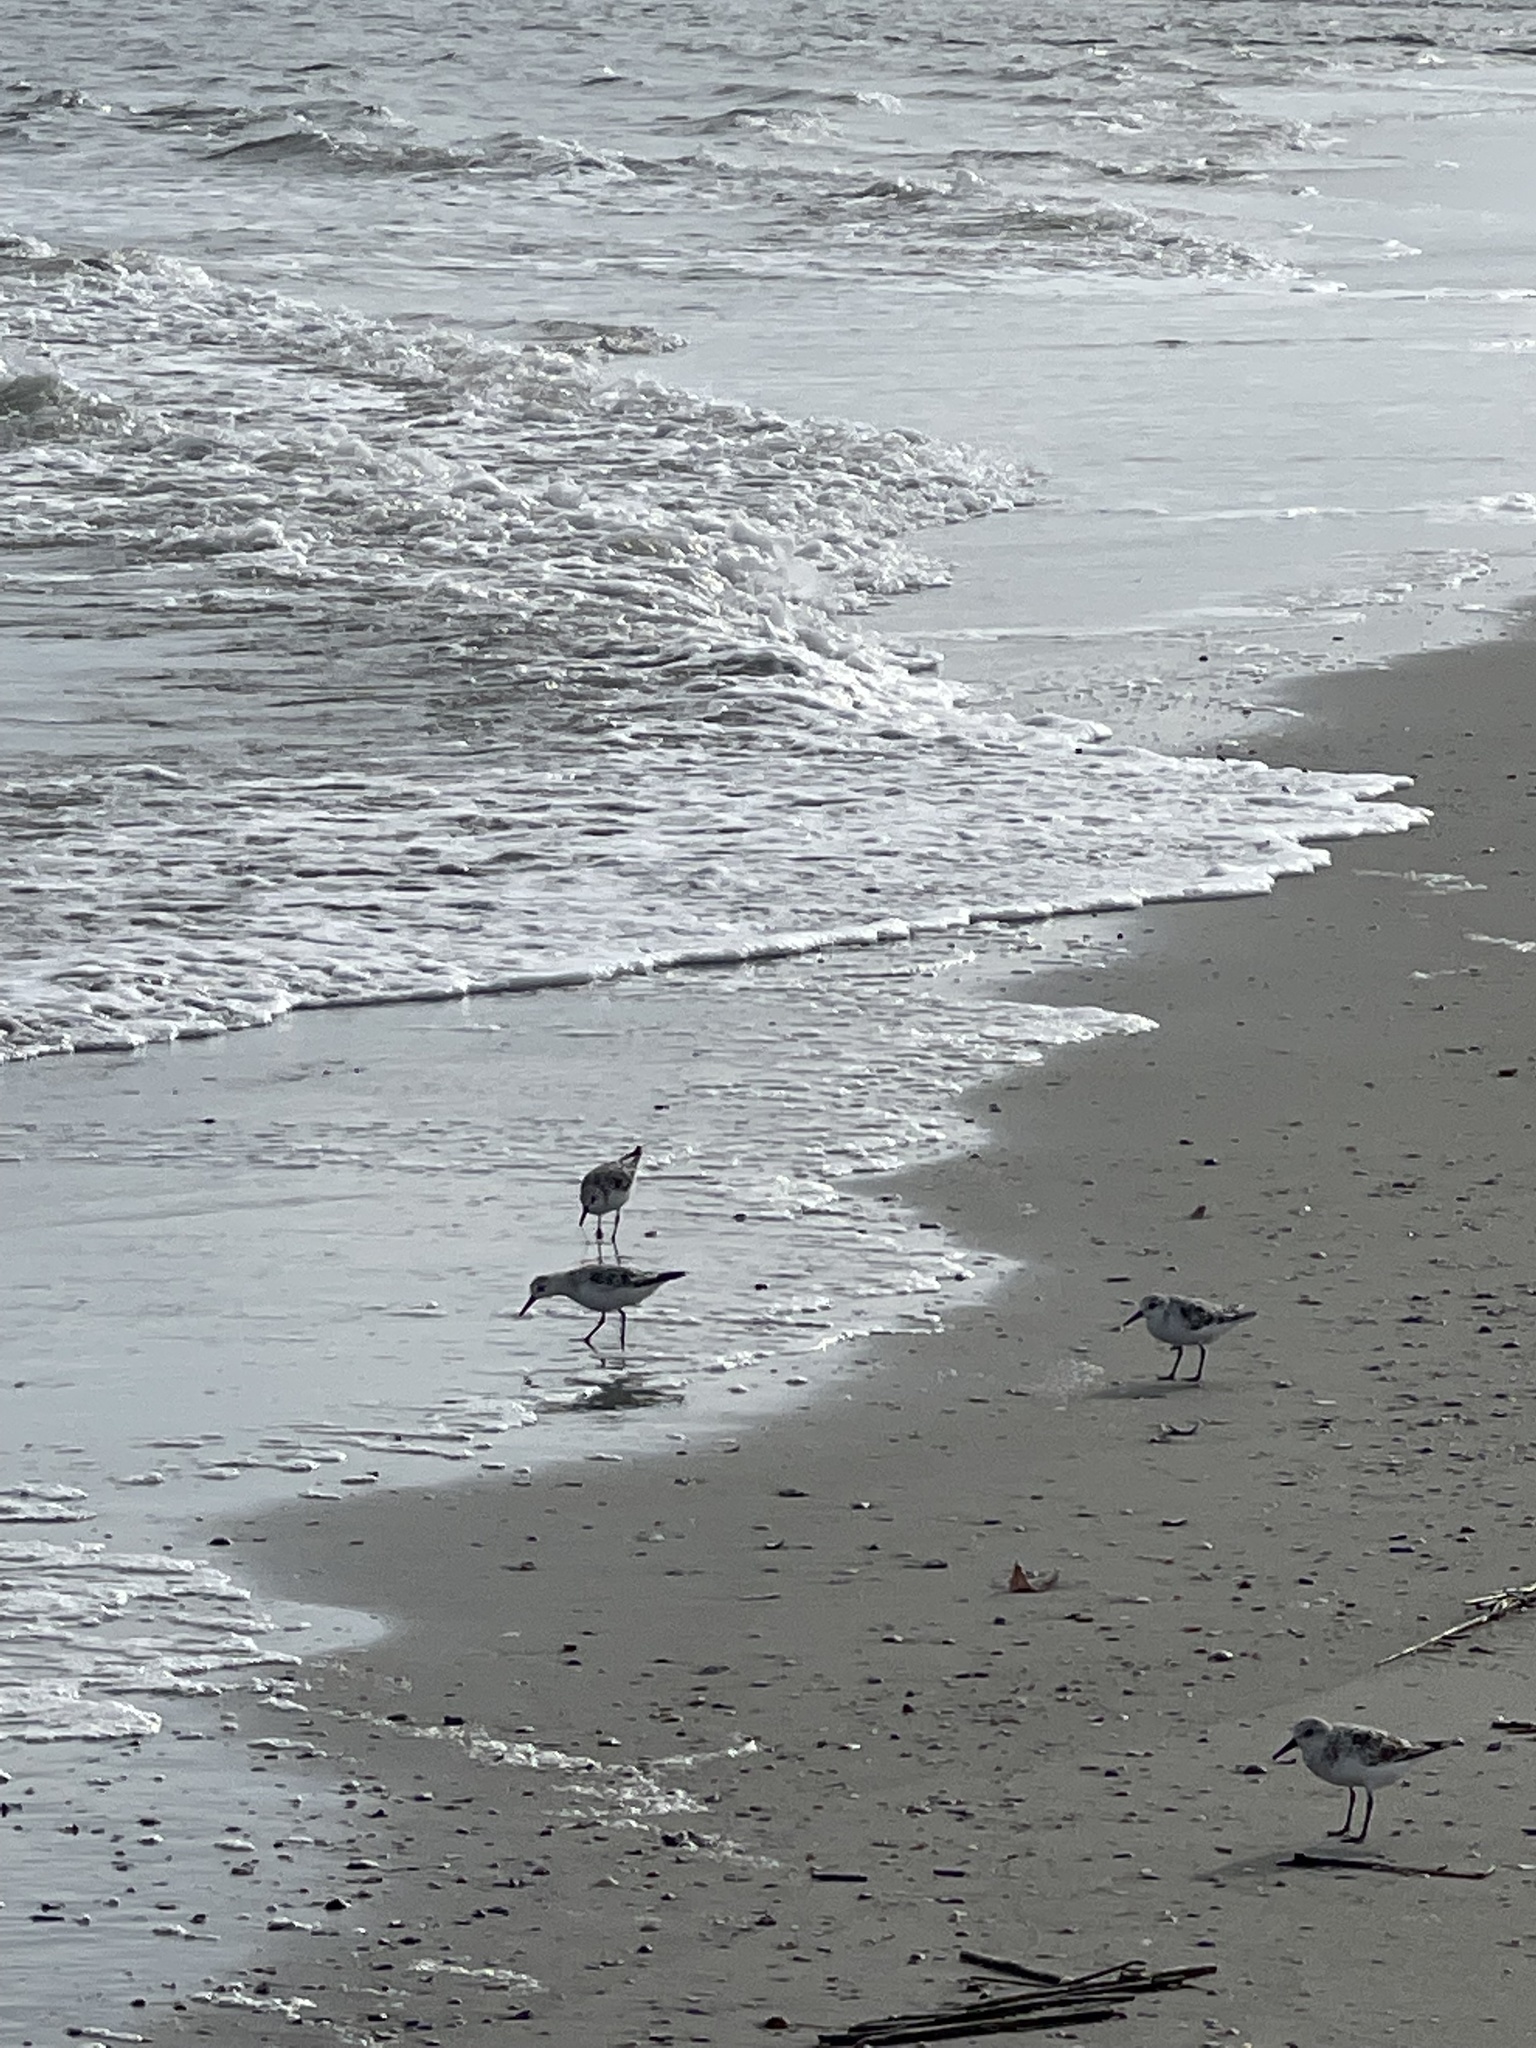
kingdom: Animalia
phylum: Chordata
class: Aves
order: Charadriiformes
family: Scolopacidae
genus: Calidris
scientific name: Calidris alba
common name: Sanderling
